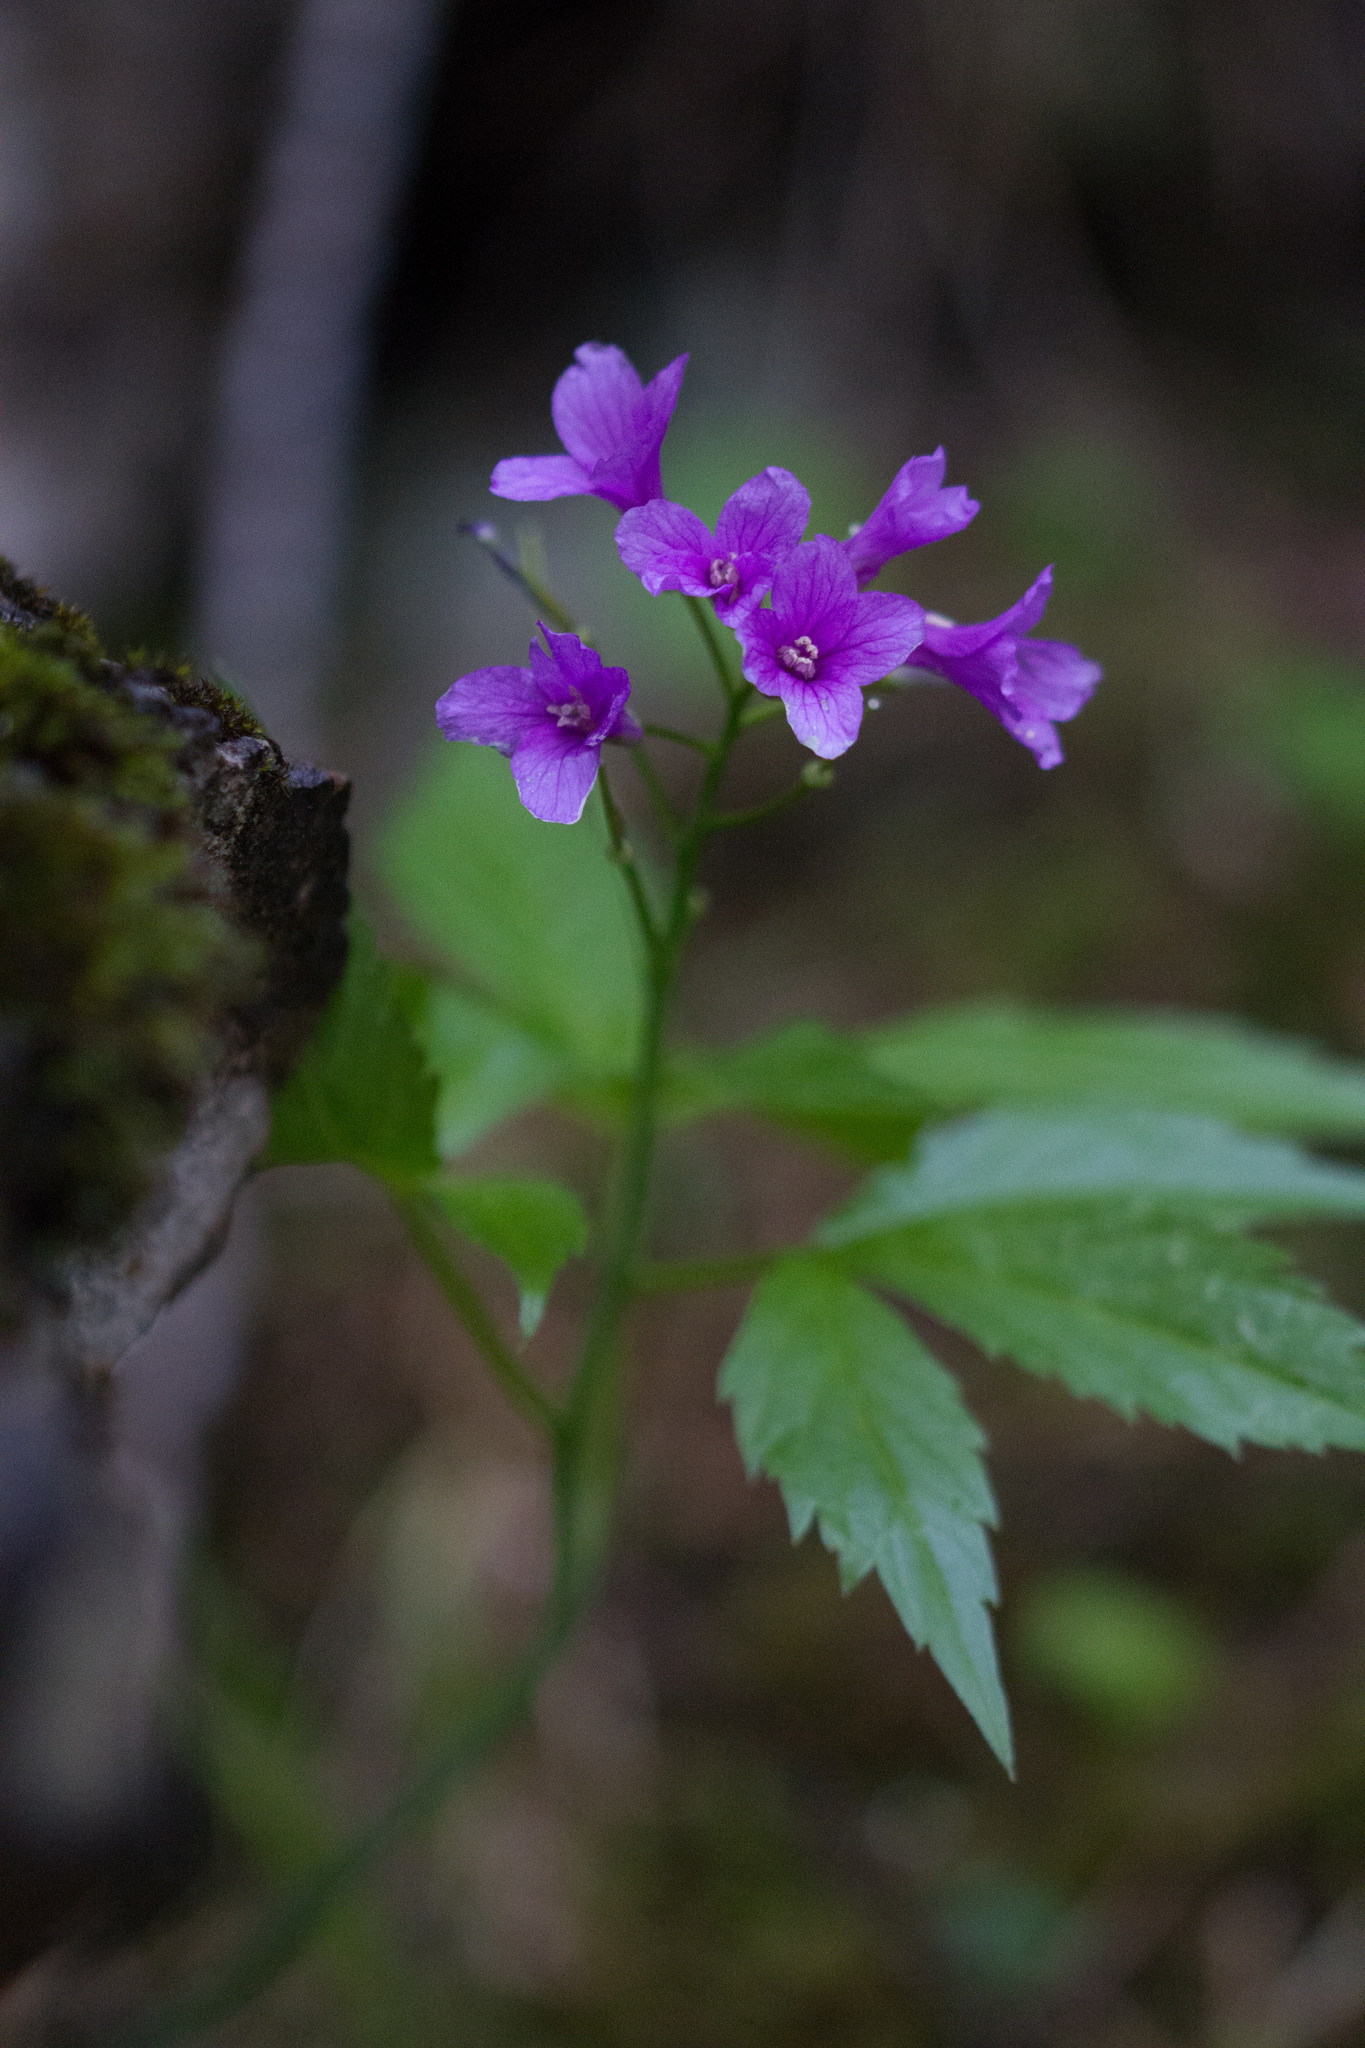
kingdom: Plantae
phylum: Tracheophyta
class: Magnoliopsida
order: Brassicales
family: Brassicaceae
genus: Cardamine
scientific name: Cardamine pentaphyllos
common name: Five-leaflet bitter-cress
